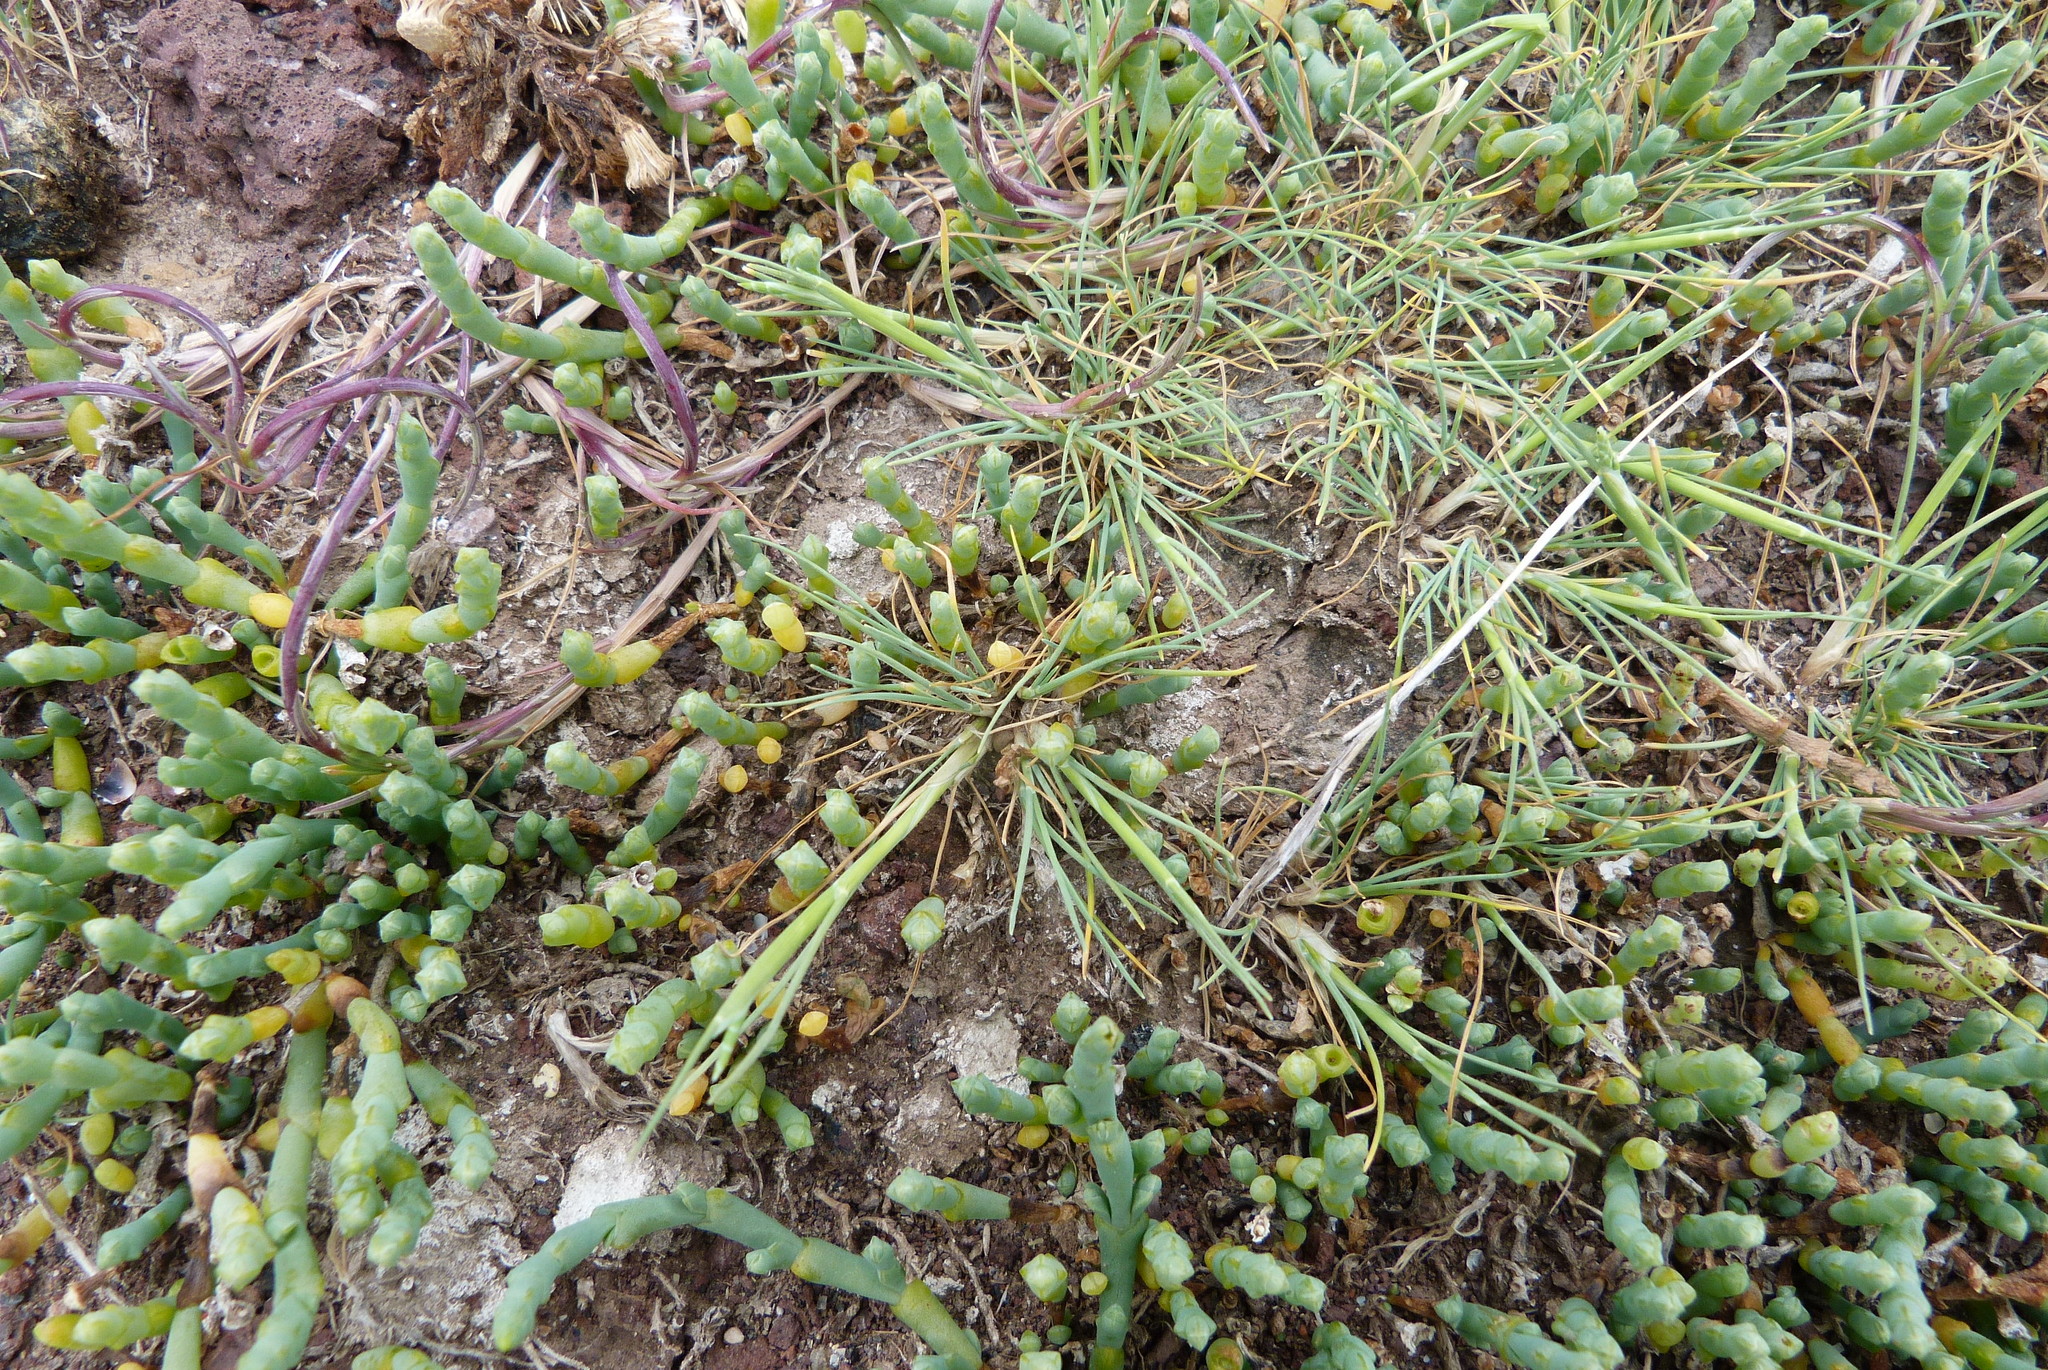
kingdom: Plantae
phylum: Tracheophyta
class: Liliopsida
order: Poales
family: Poaceae
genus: Puccinellia
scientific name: Puccinellia stricta
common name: Australian saltmarsh grass
